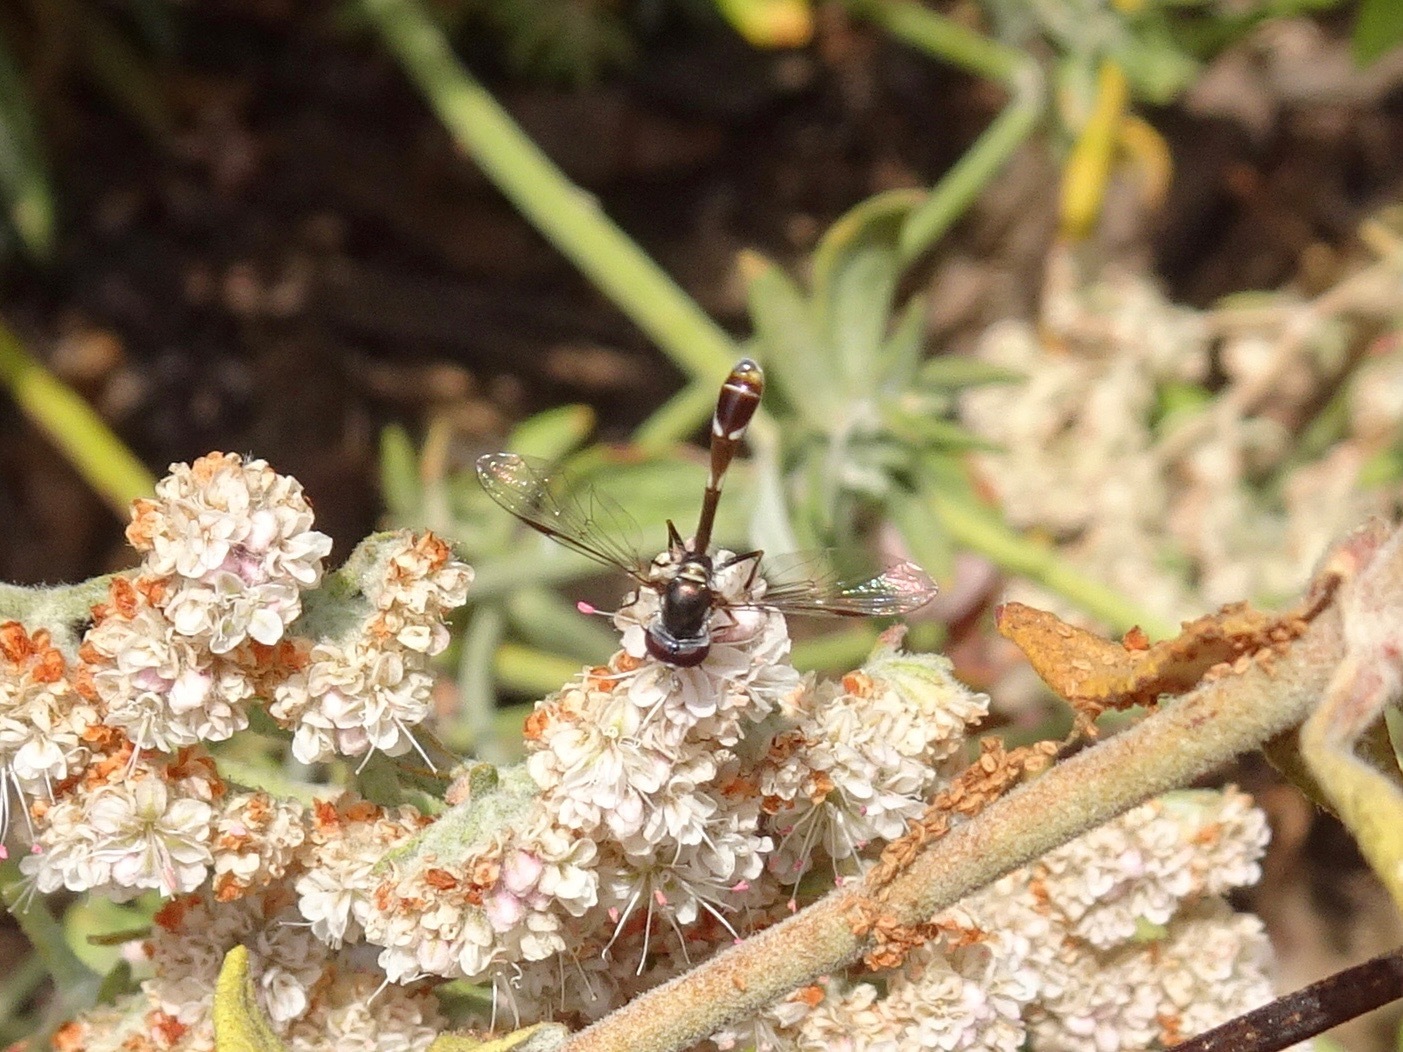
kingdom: Animalia
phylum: Arthropoda
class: Insecta
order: Diptera
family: Syrphidae
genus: Dioprosopa
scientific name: Dioprosopa clavatus
